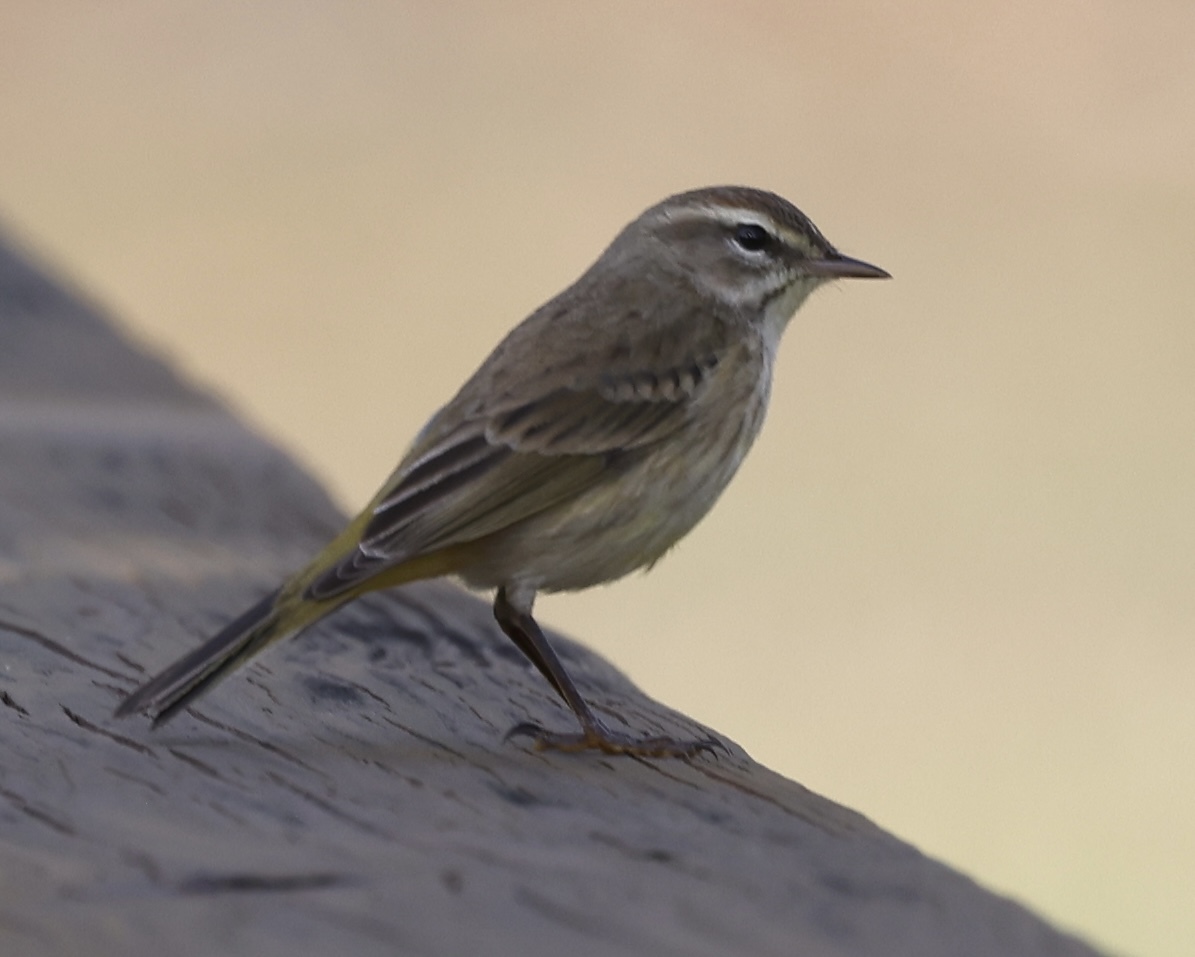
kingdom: Animalia
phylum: Chordata
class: Aves
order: Passeriformes
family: Parulidae
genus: Setophaga
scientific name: Setophaga palmarum
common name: Palm warbler
